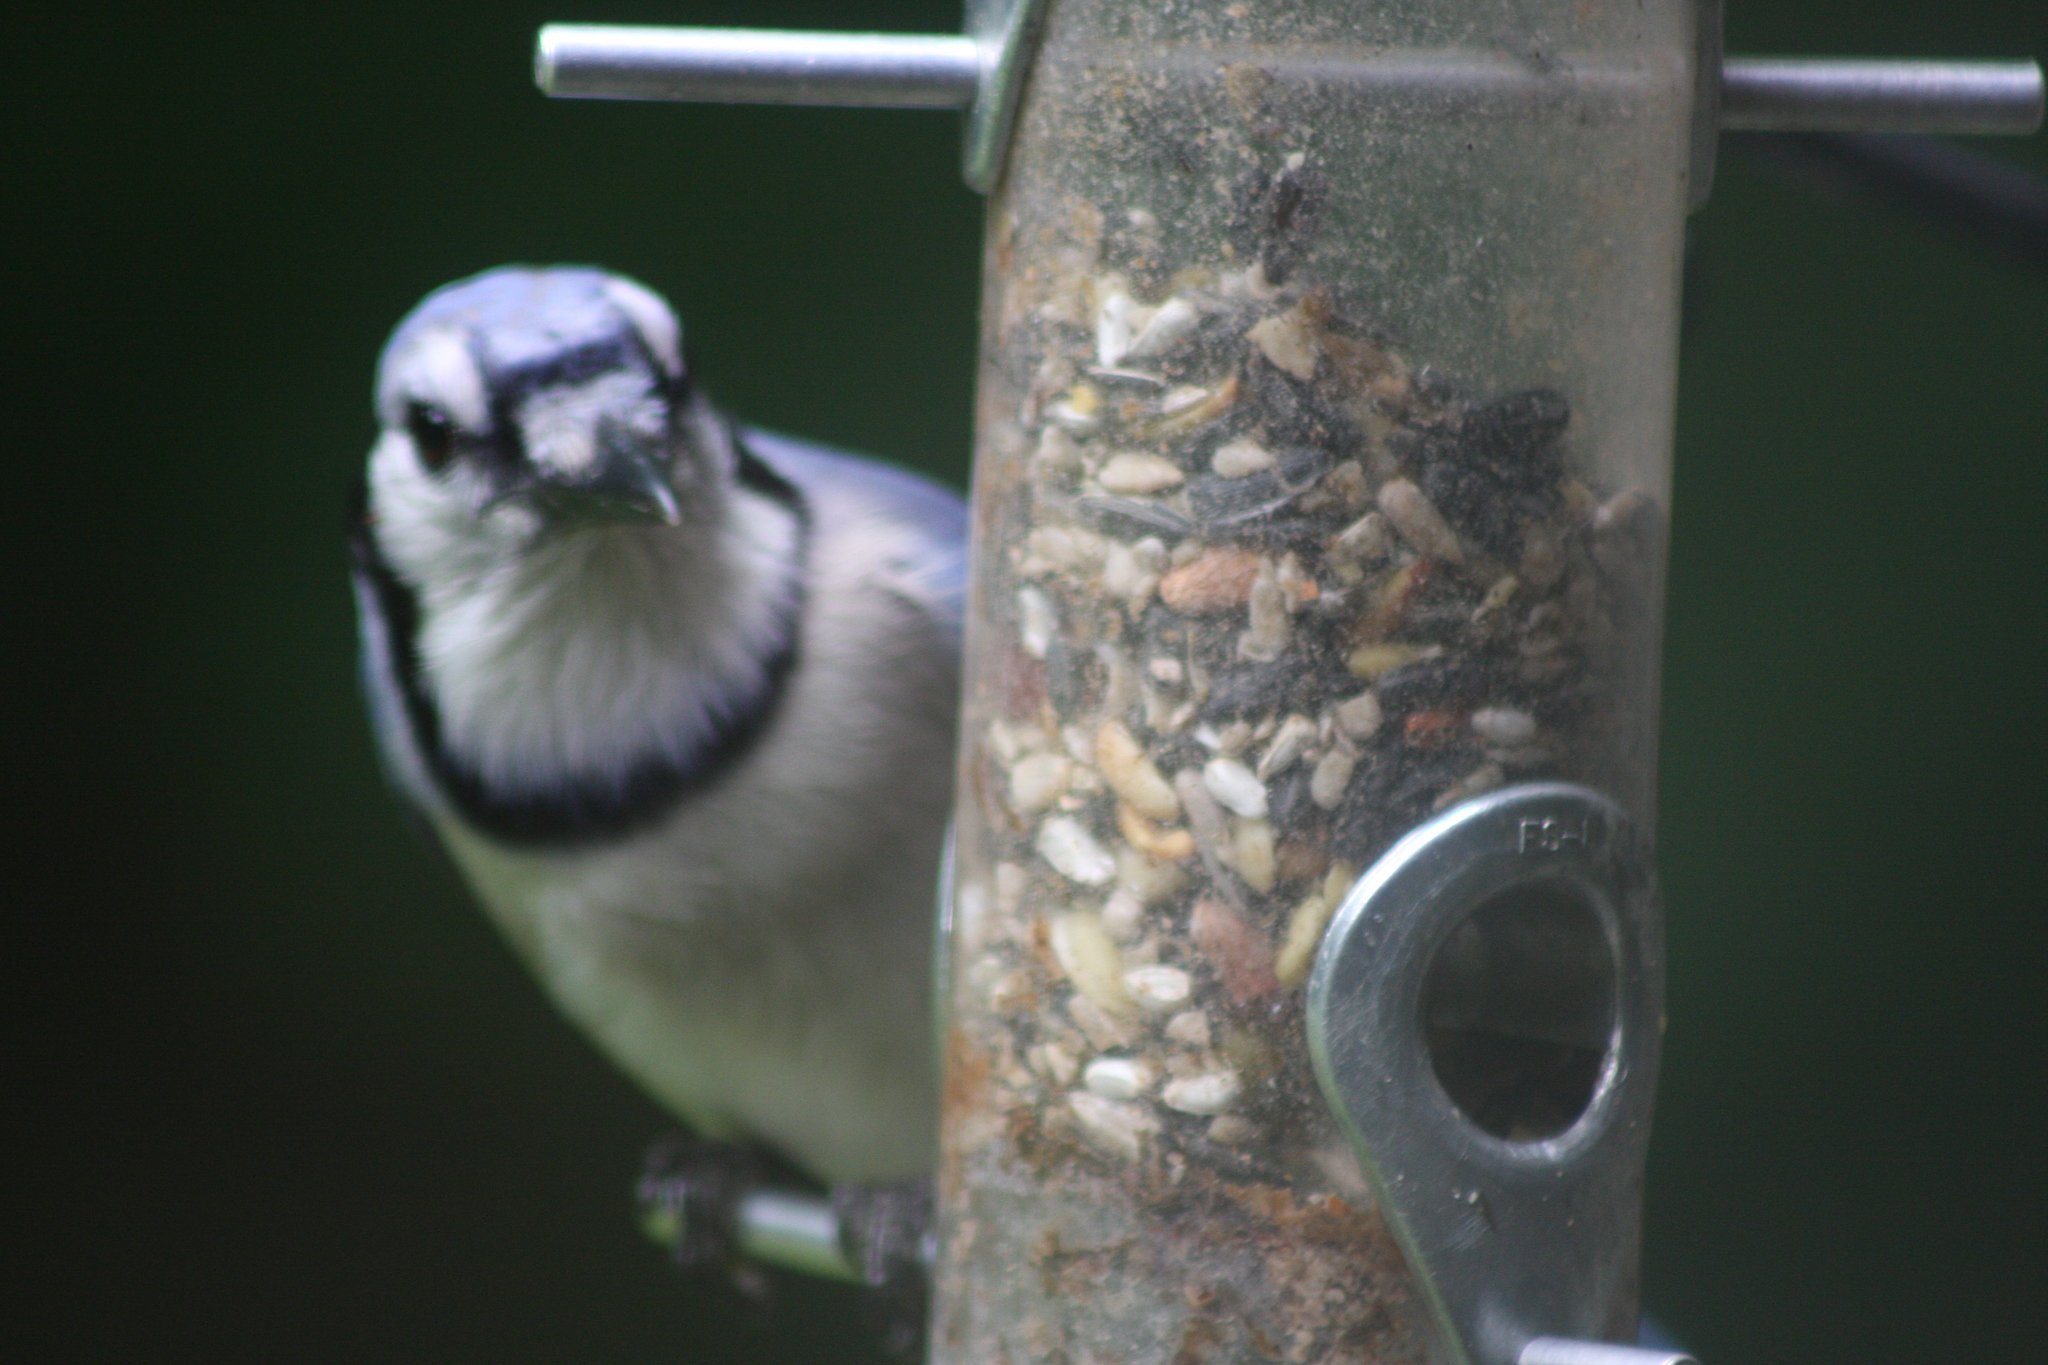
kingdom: Animalia
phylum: Chordata
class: Aves
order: Passeriformes
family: Corvidae
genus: Cyanocitta
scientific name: Cyanocitta cristata
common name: Blue jay
